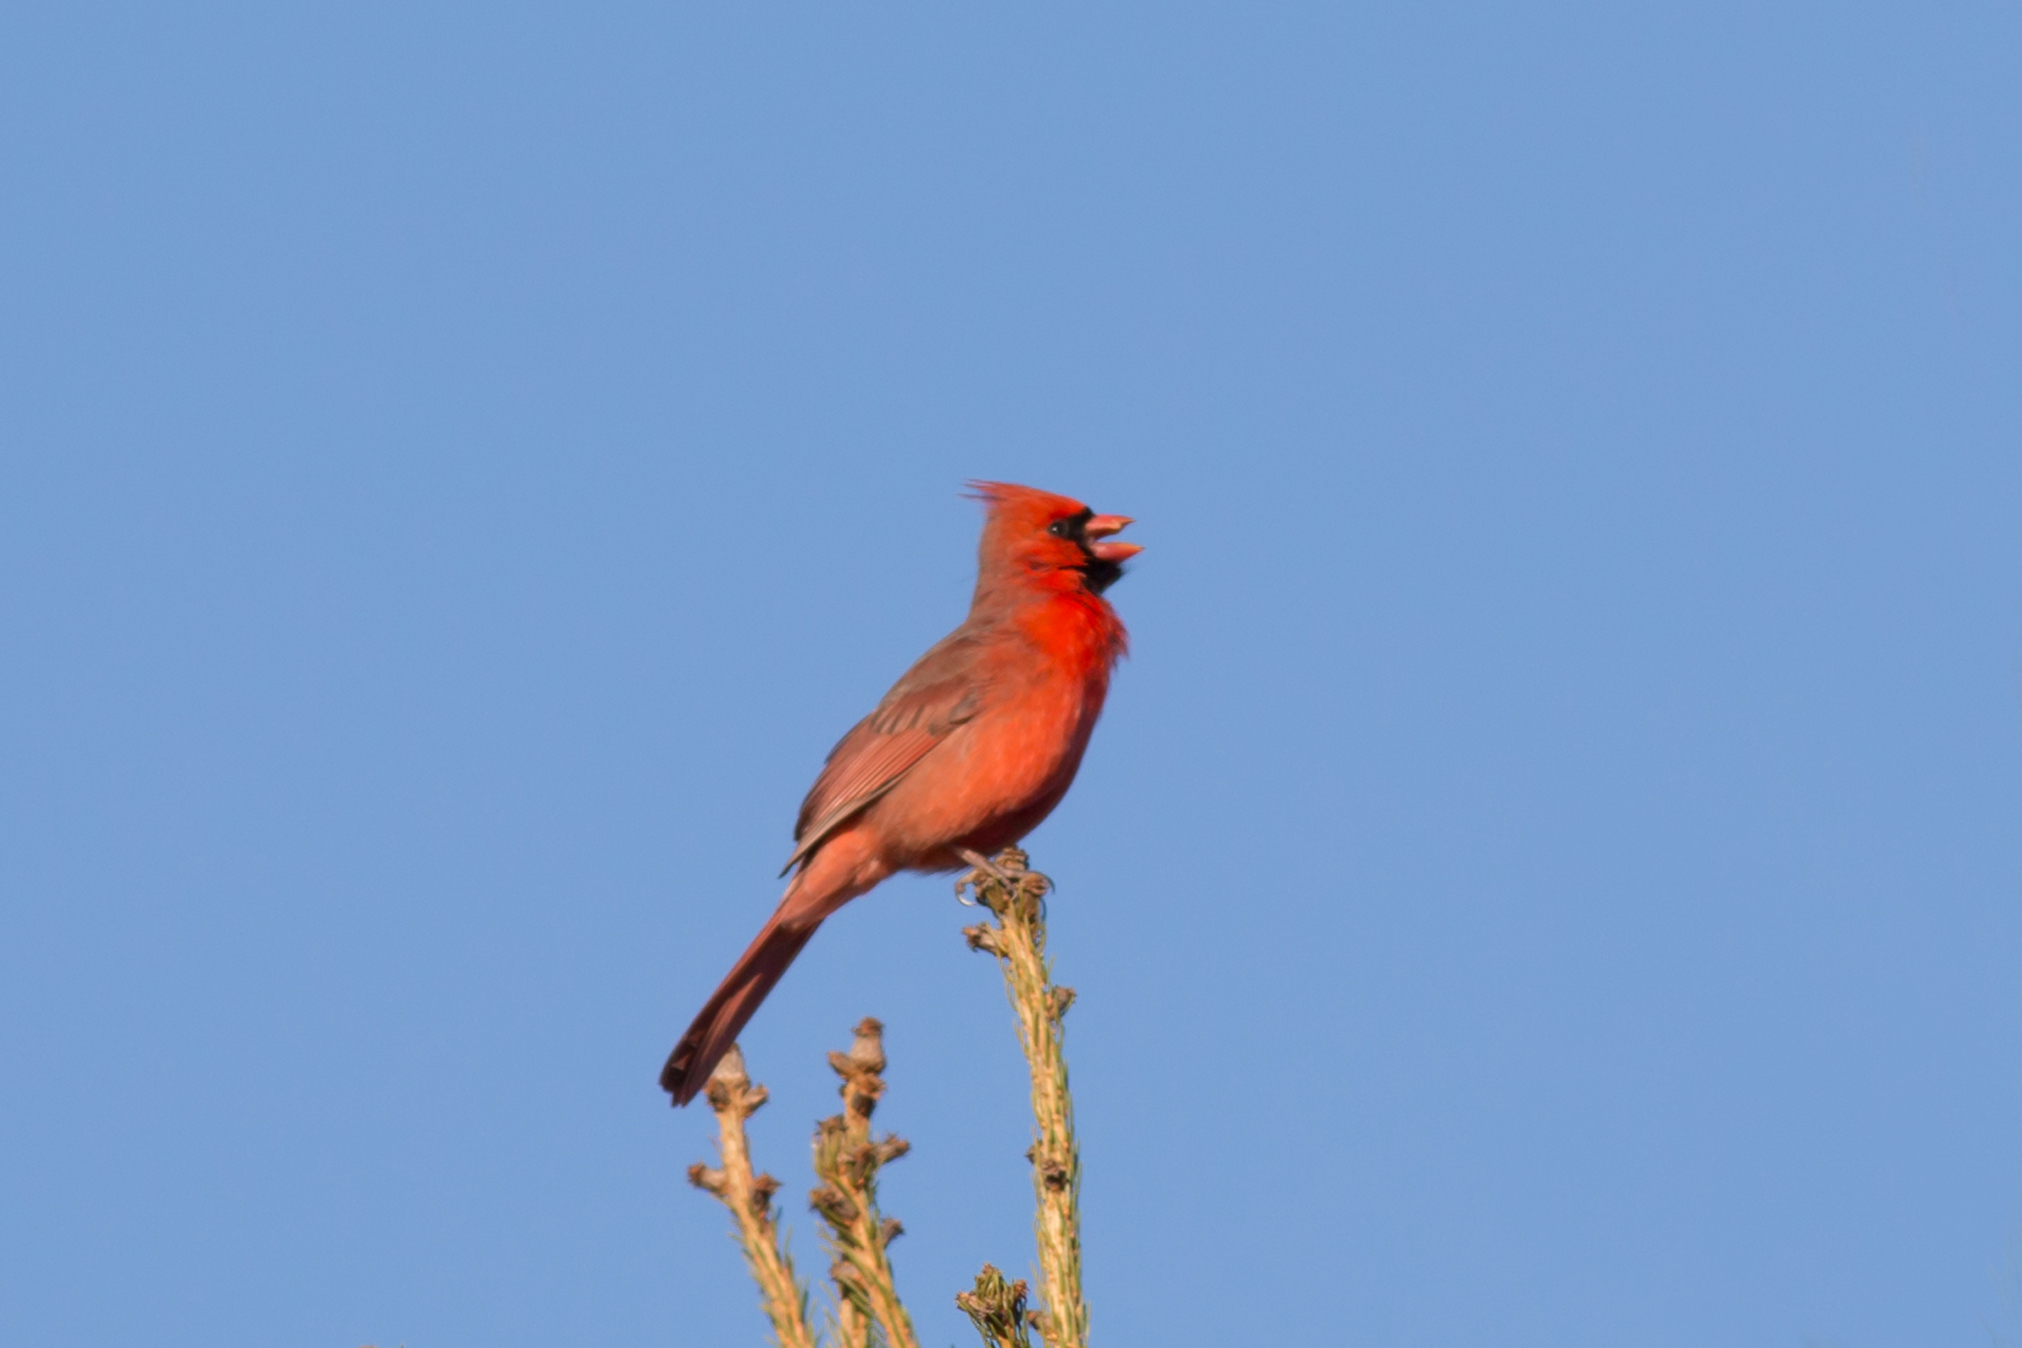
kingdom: Animalia
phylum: Chordata
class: Aves
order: Passeriformes
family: Cardinalidae
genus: Cardinalis
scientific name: Cardinalis cardinalis
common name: Northern cardinal
